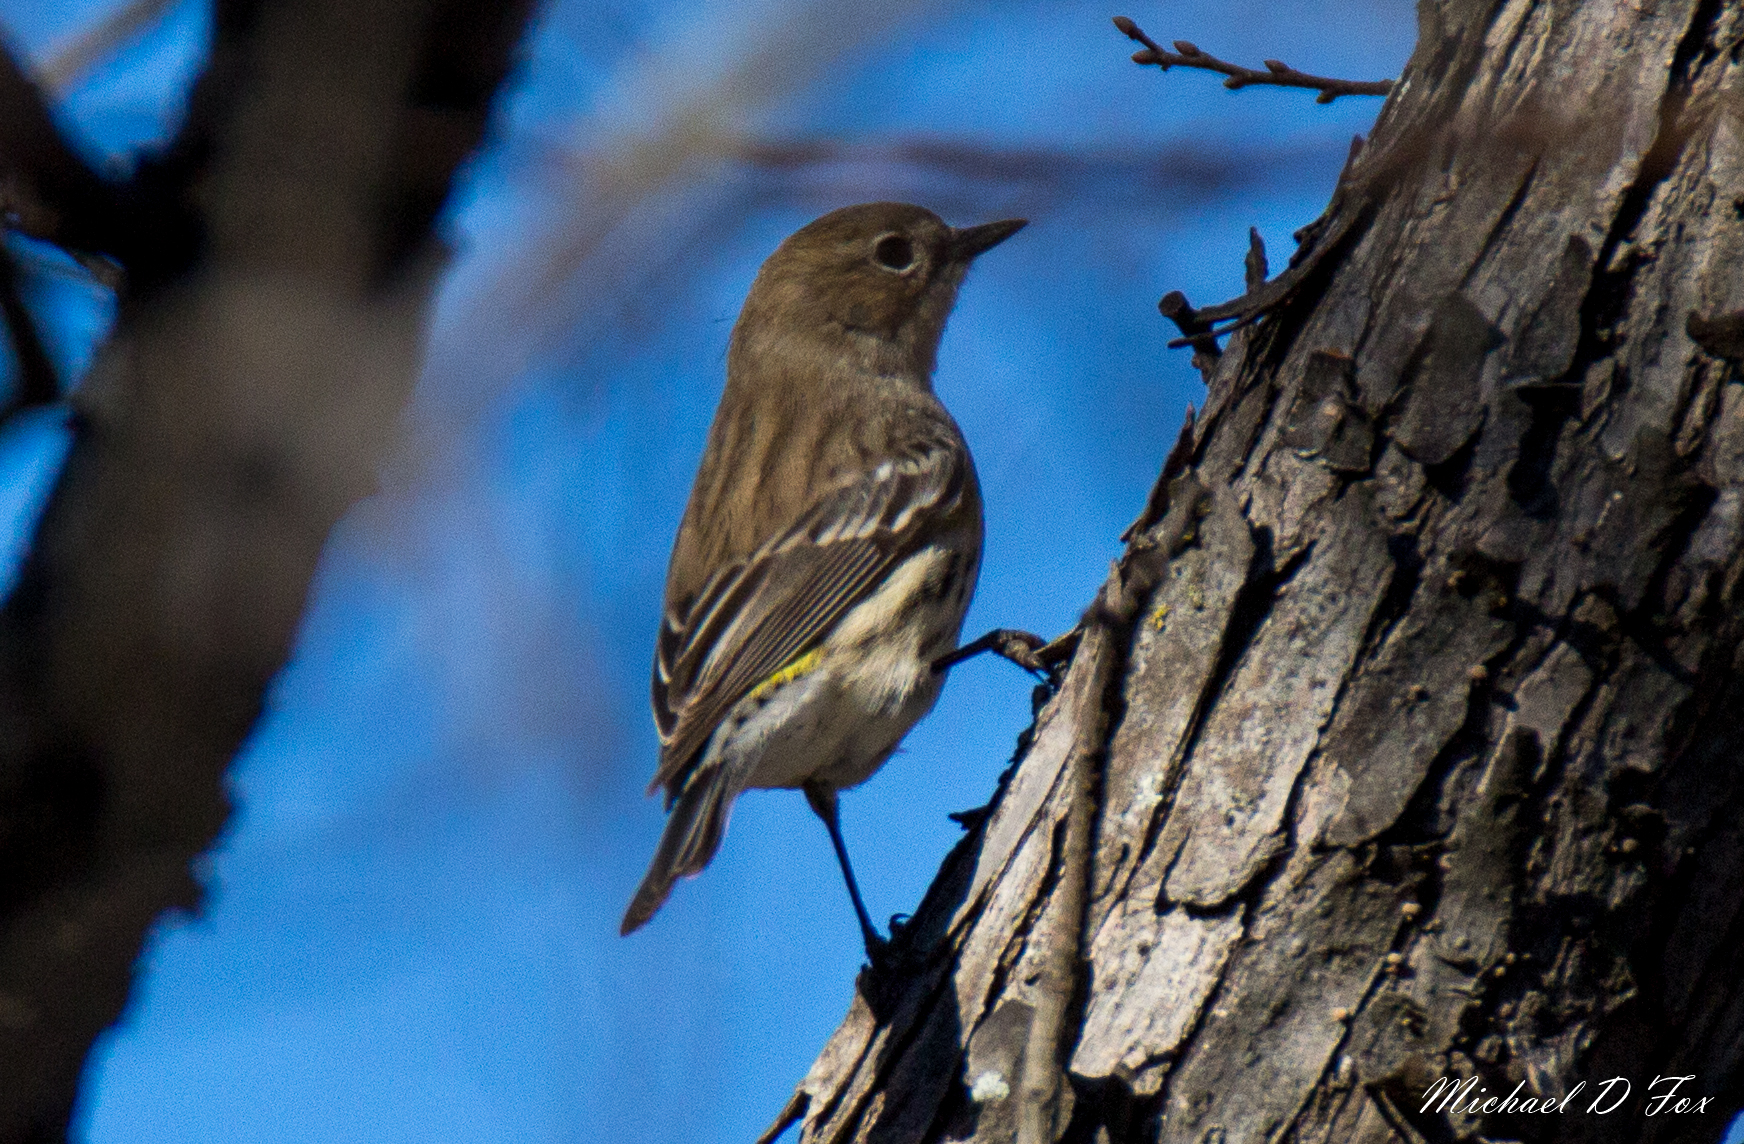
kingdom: Animalia
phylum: Chordata
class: Aves
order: Passeriformes
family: Parulidae
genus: Setophaga
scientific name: Setophaga coronata
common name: Myrtle warbler
